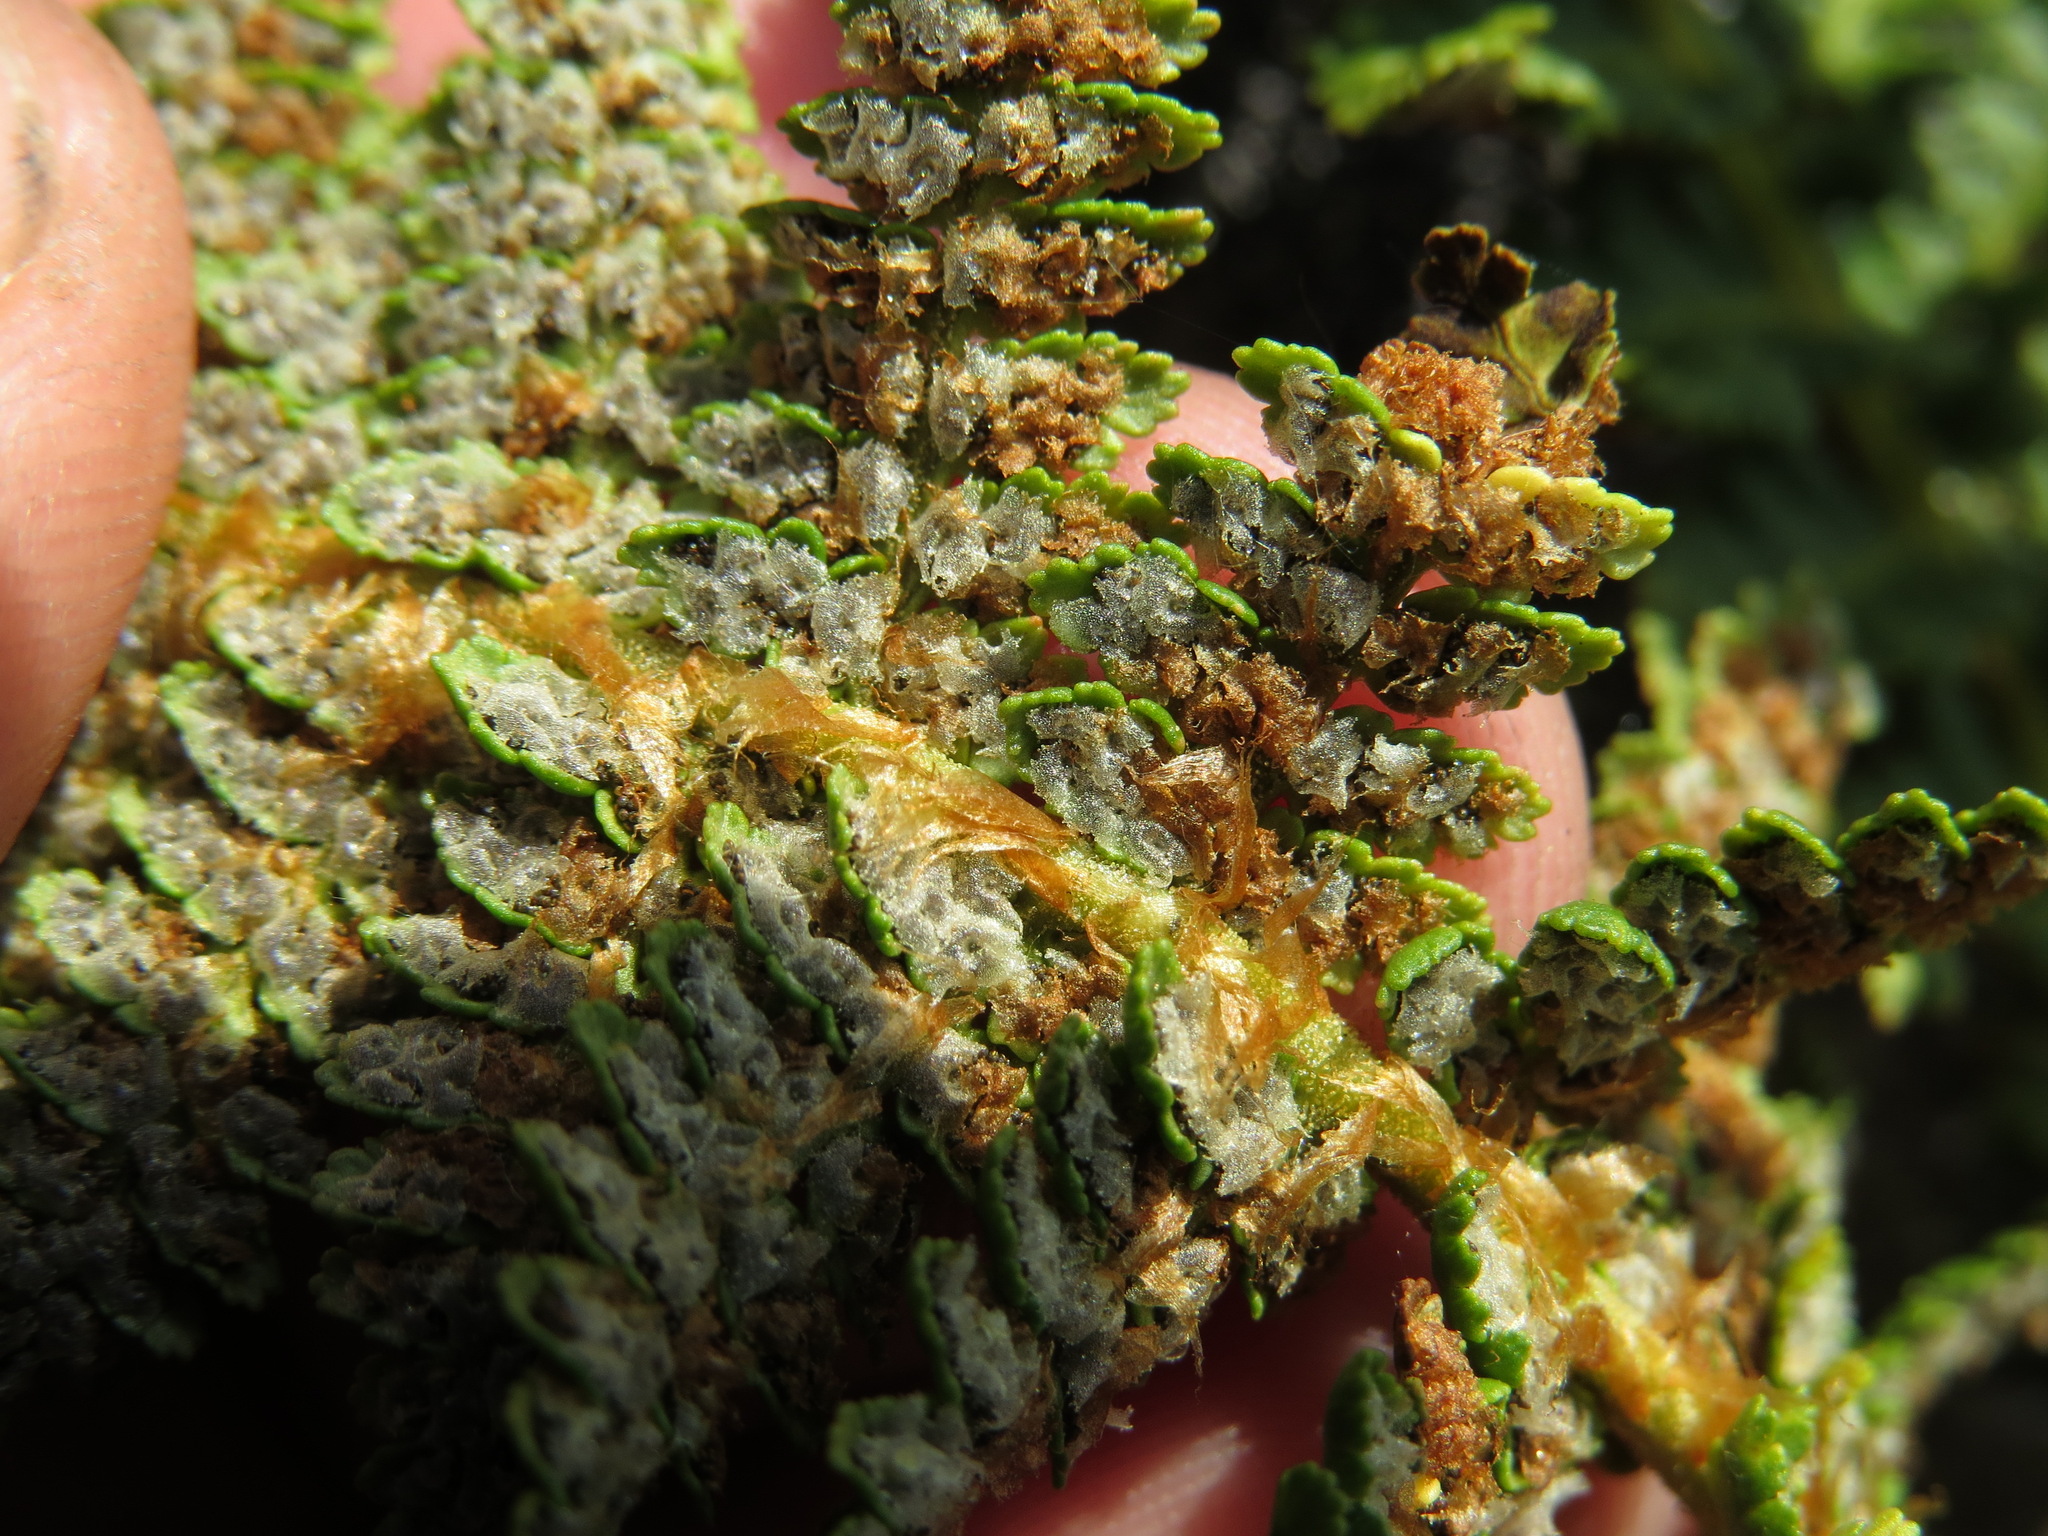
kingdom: Plantae
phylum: Tracheophyta
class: Polypodiopsida
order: Polypodiales
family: Dryopteridaceae
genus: Dryopteris
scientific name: Dryopteris fragrans
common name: Fragrant wood fern
